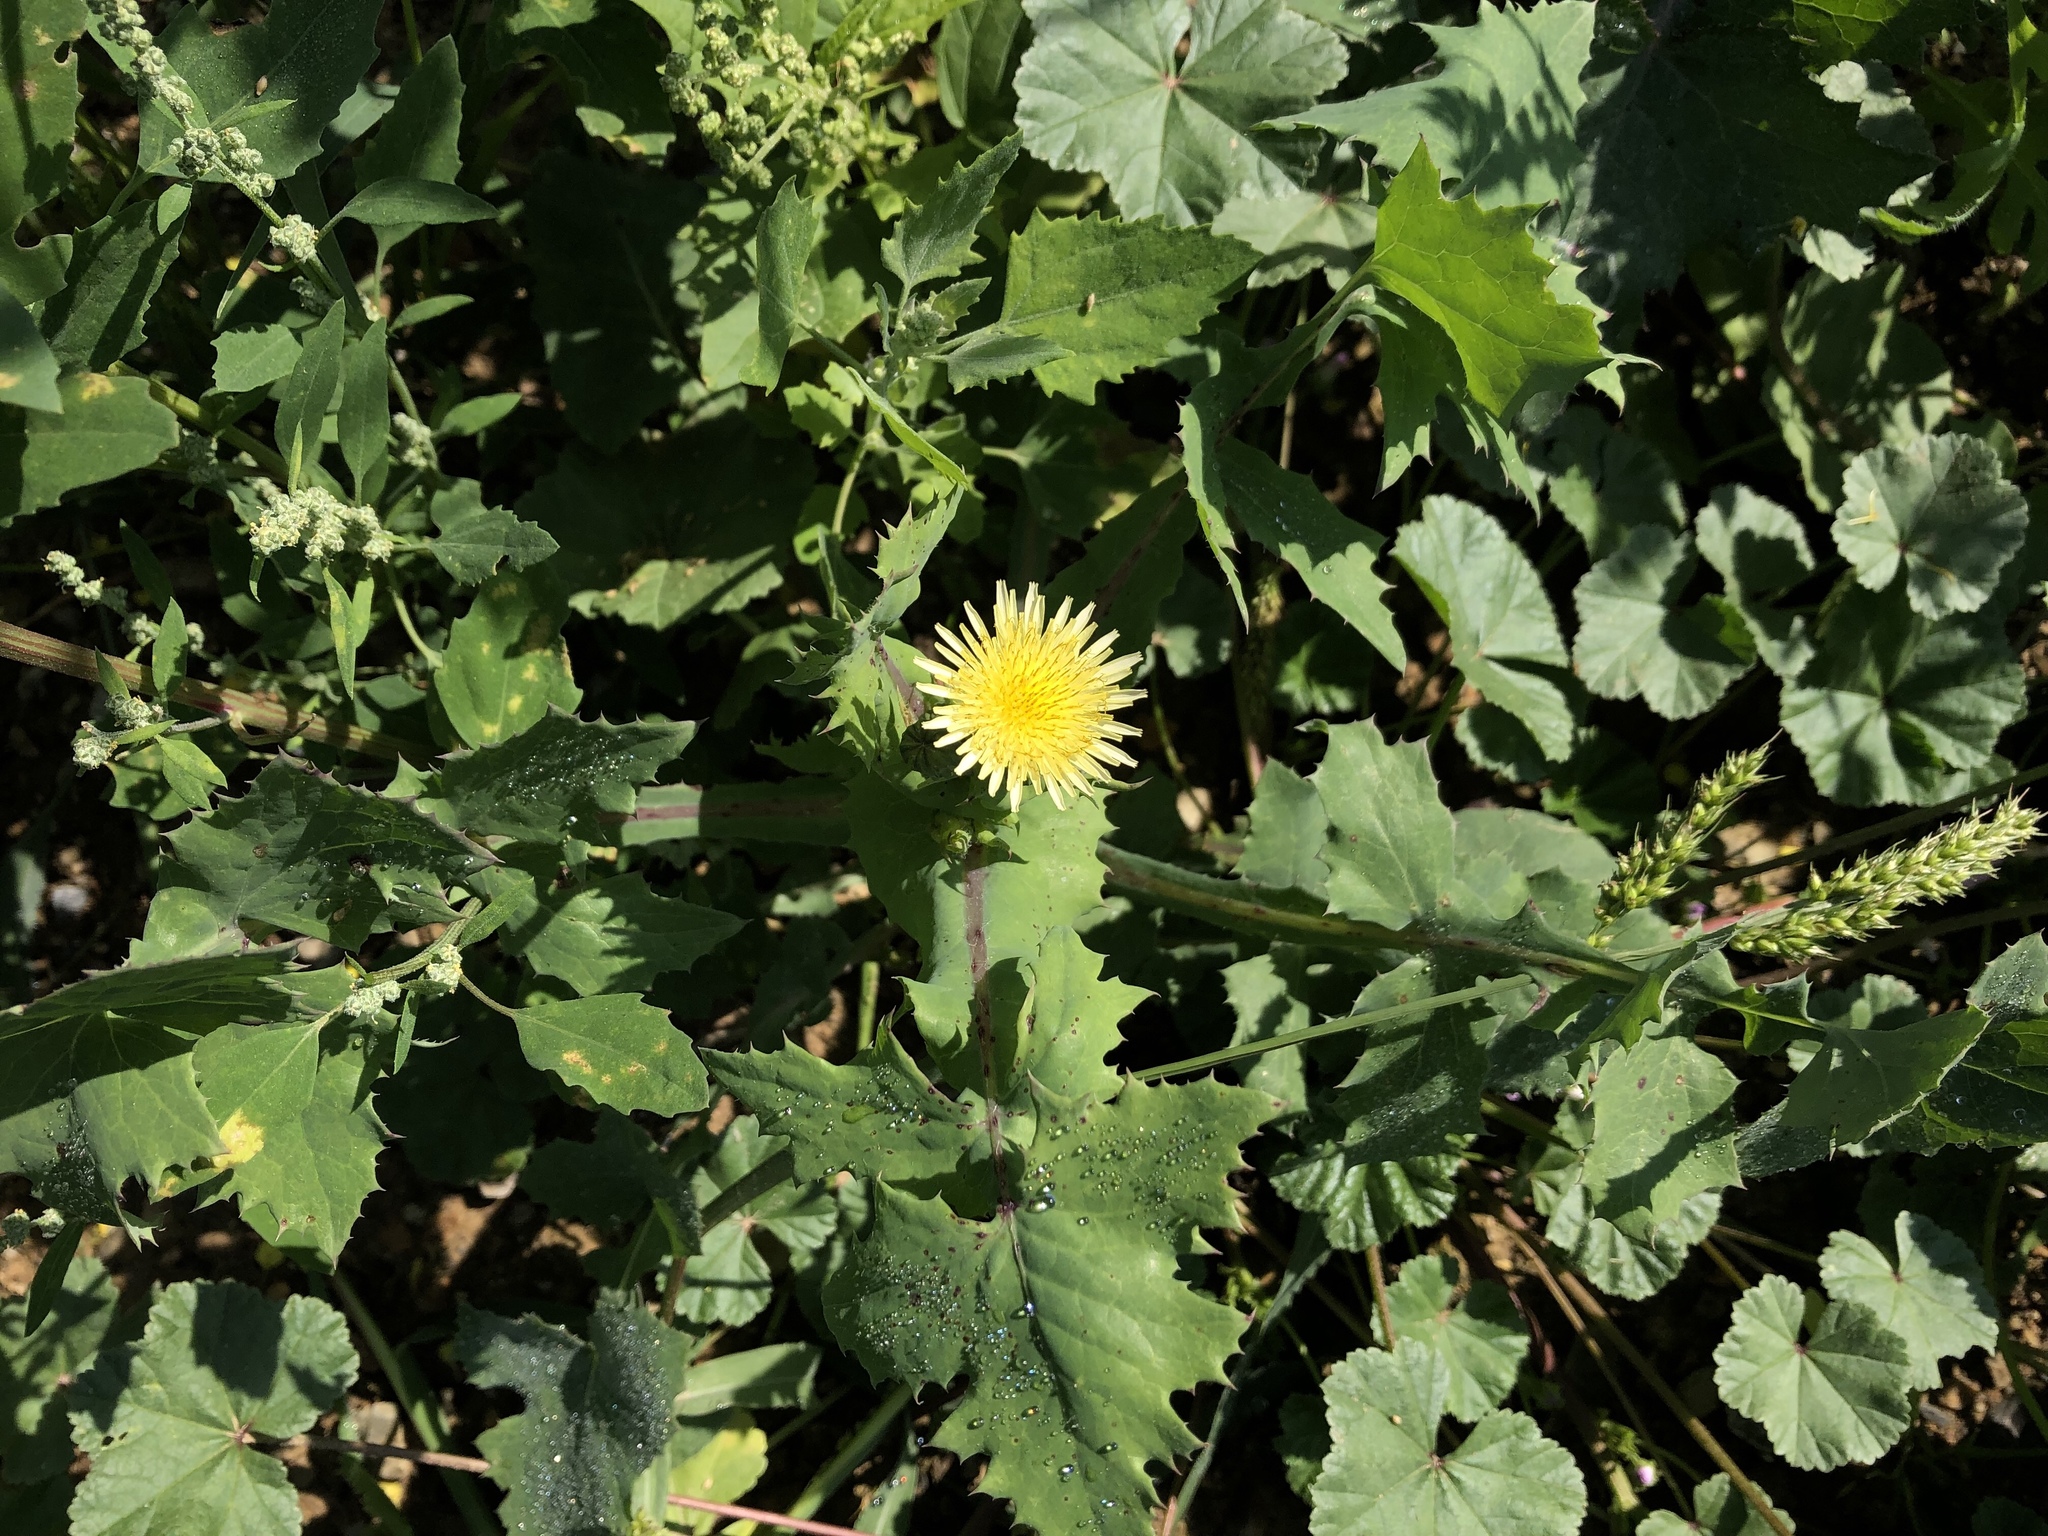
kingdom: Plantae
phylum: Tracheophyta
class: Magnoliopsida
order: Asterales
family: Asteraceae
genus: Sonchus
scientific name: Sonchus oleraceus
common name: Common sowthistle
